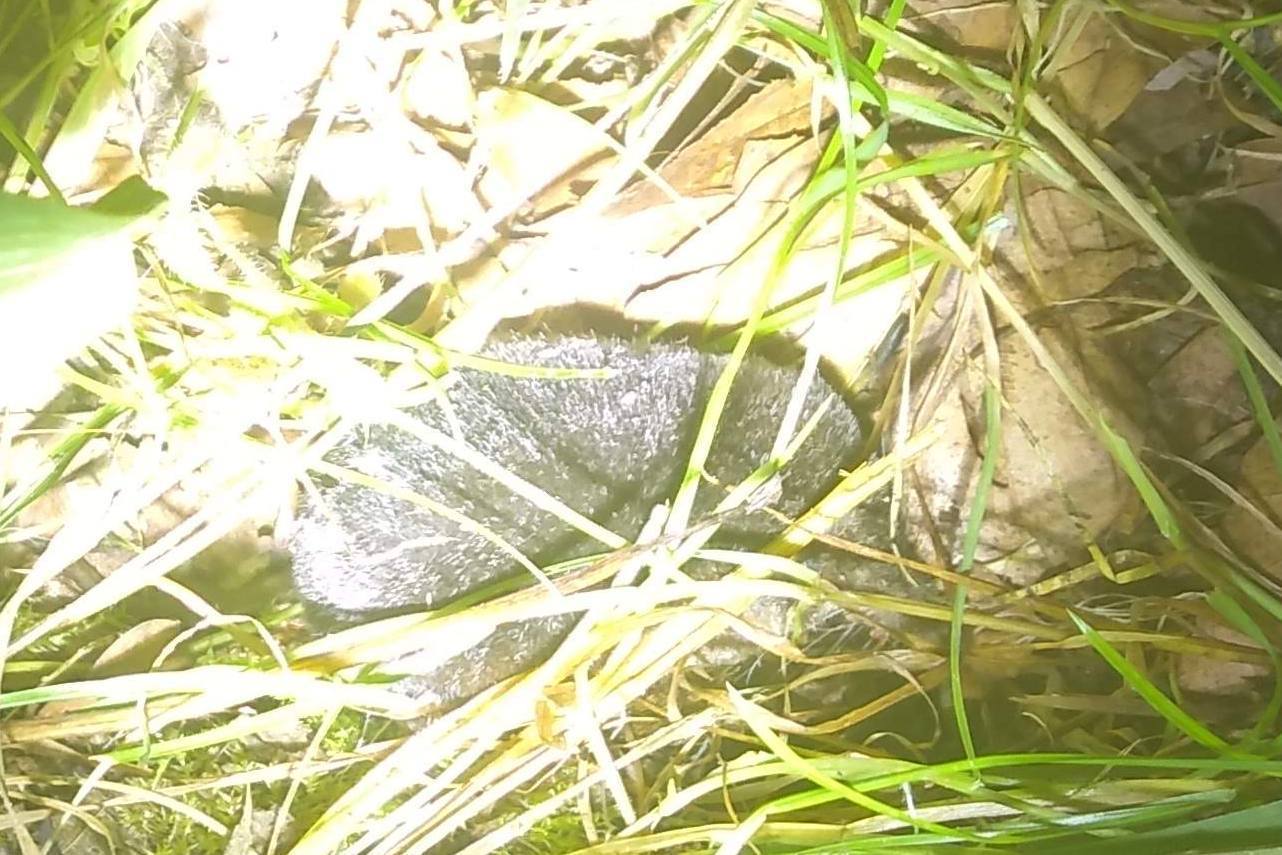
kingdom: Animalia
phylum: Chordata
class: Mammalia
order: Soricomorpha
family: Soricidae
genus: Sorex
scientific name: Sorex araneus
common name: Common shrew
